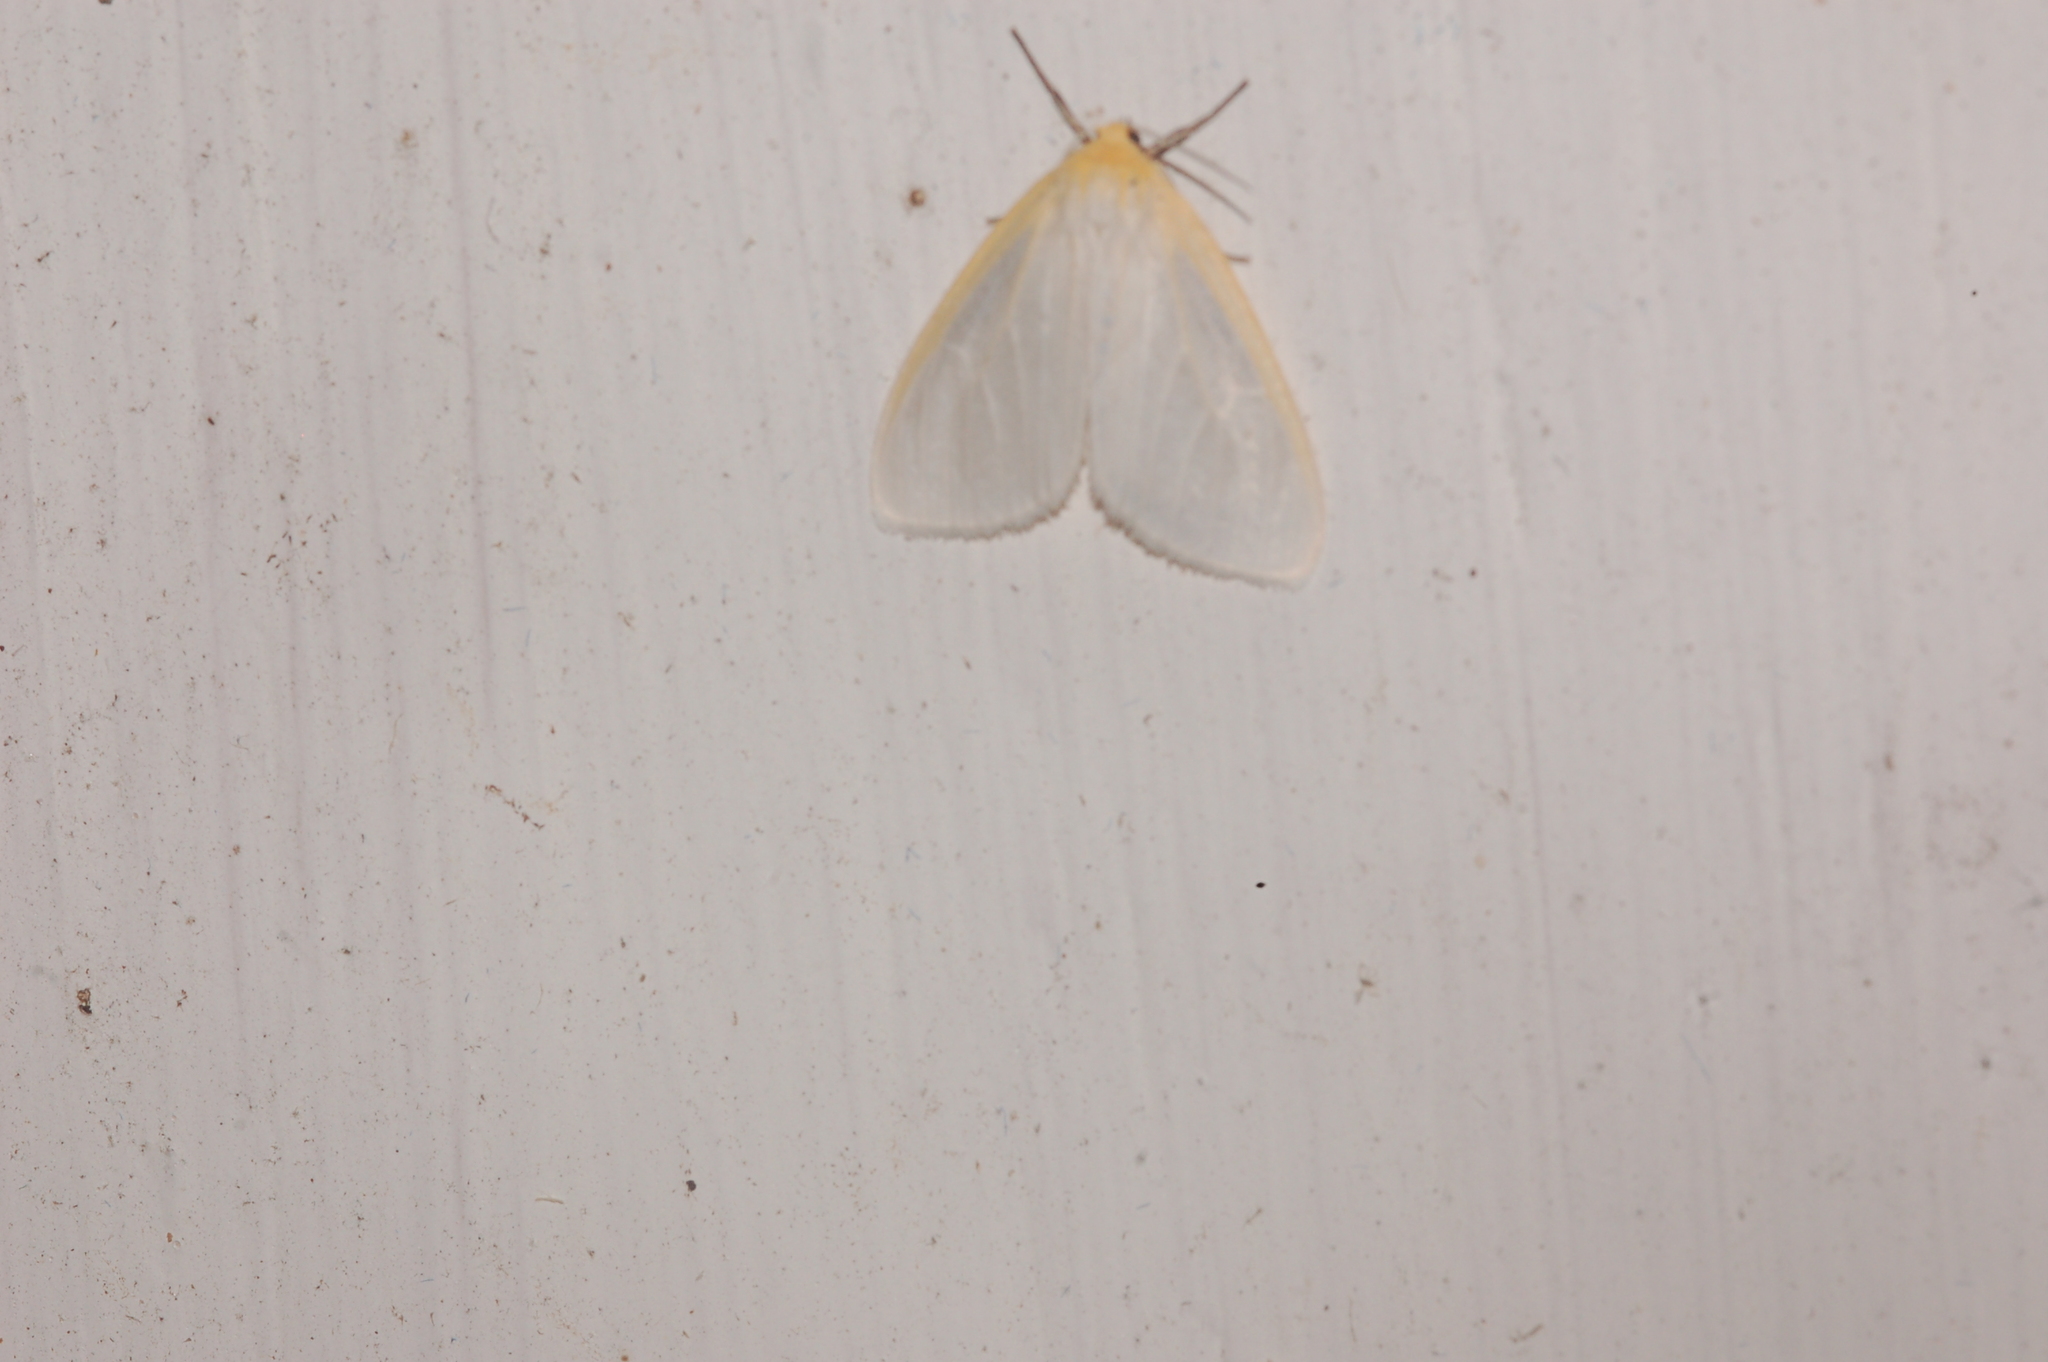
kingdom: Animalia
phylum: Arthropoda
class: Insecta
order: Lepidoptera
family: Erebidae
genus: Cycnia
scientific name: Cycnia tenera
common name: Delicate cycnia moth
